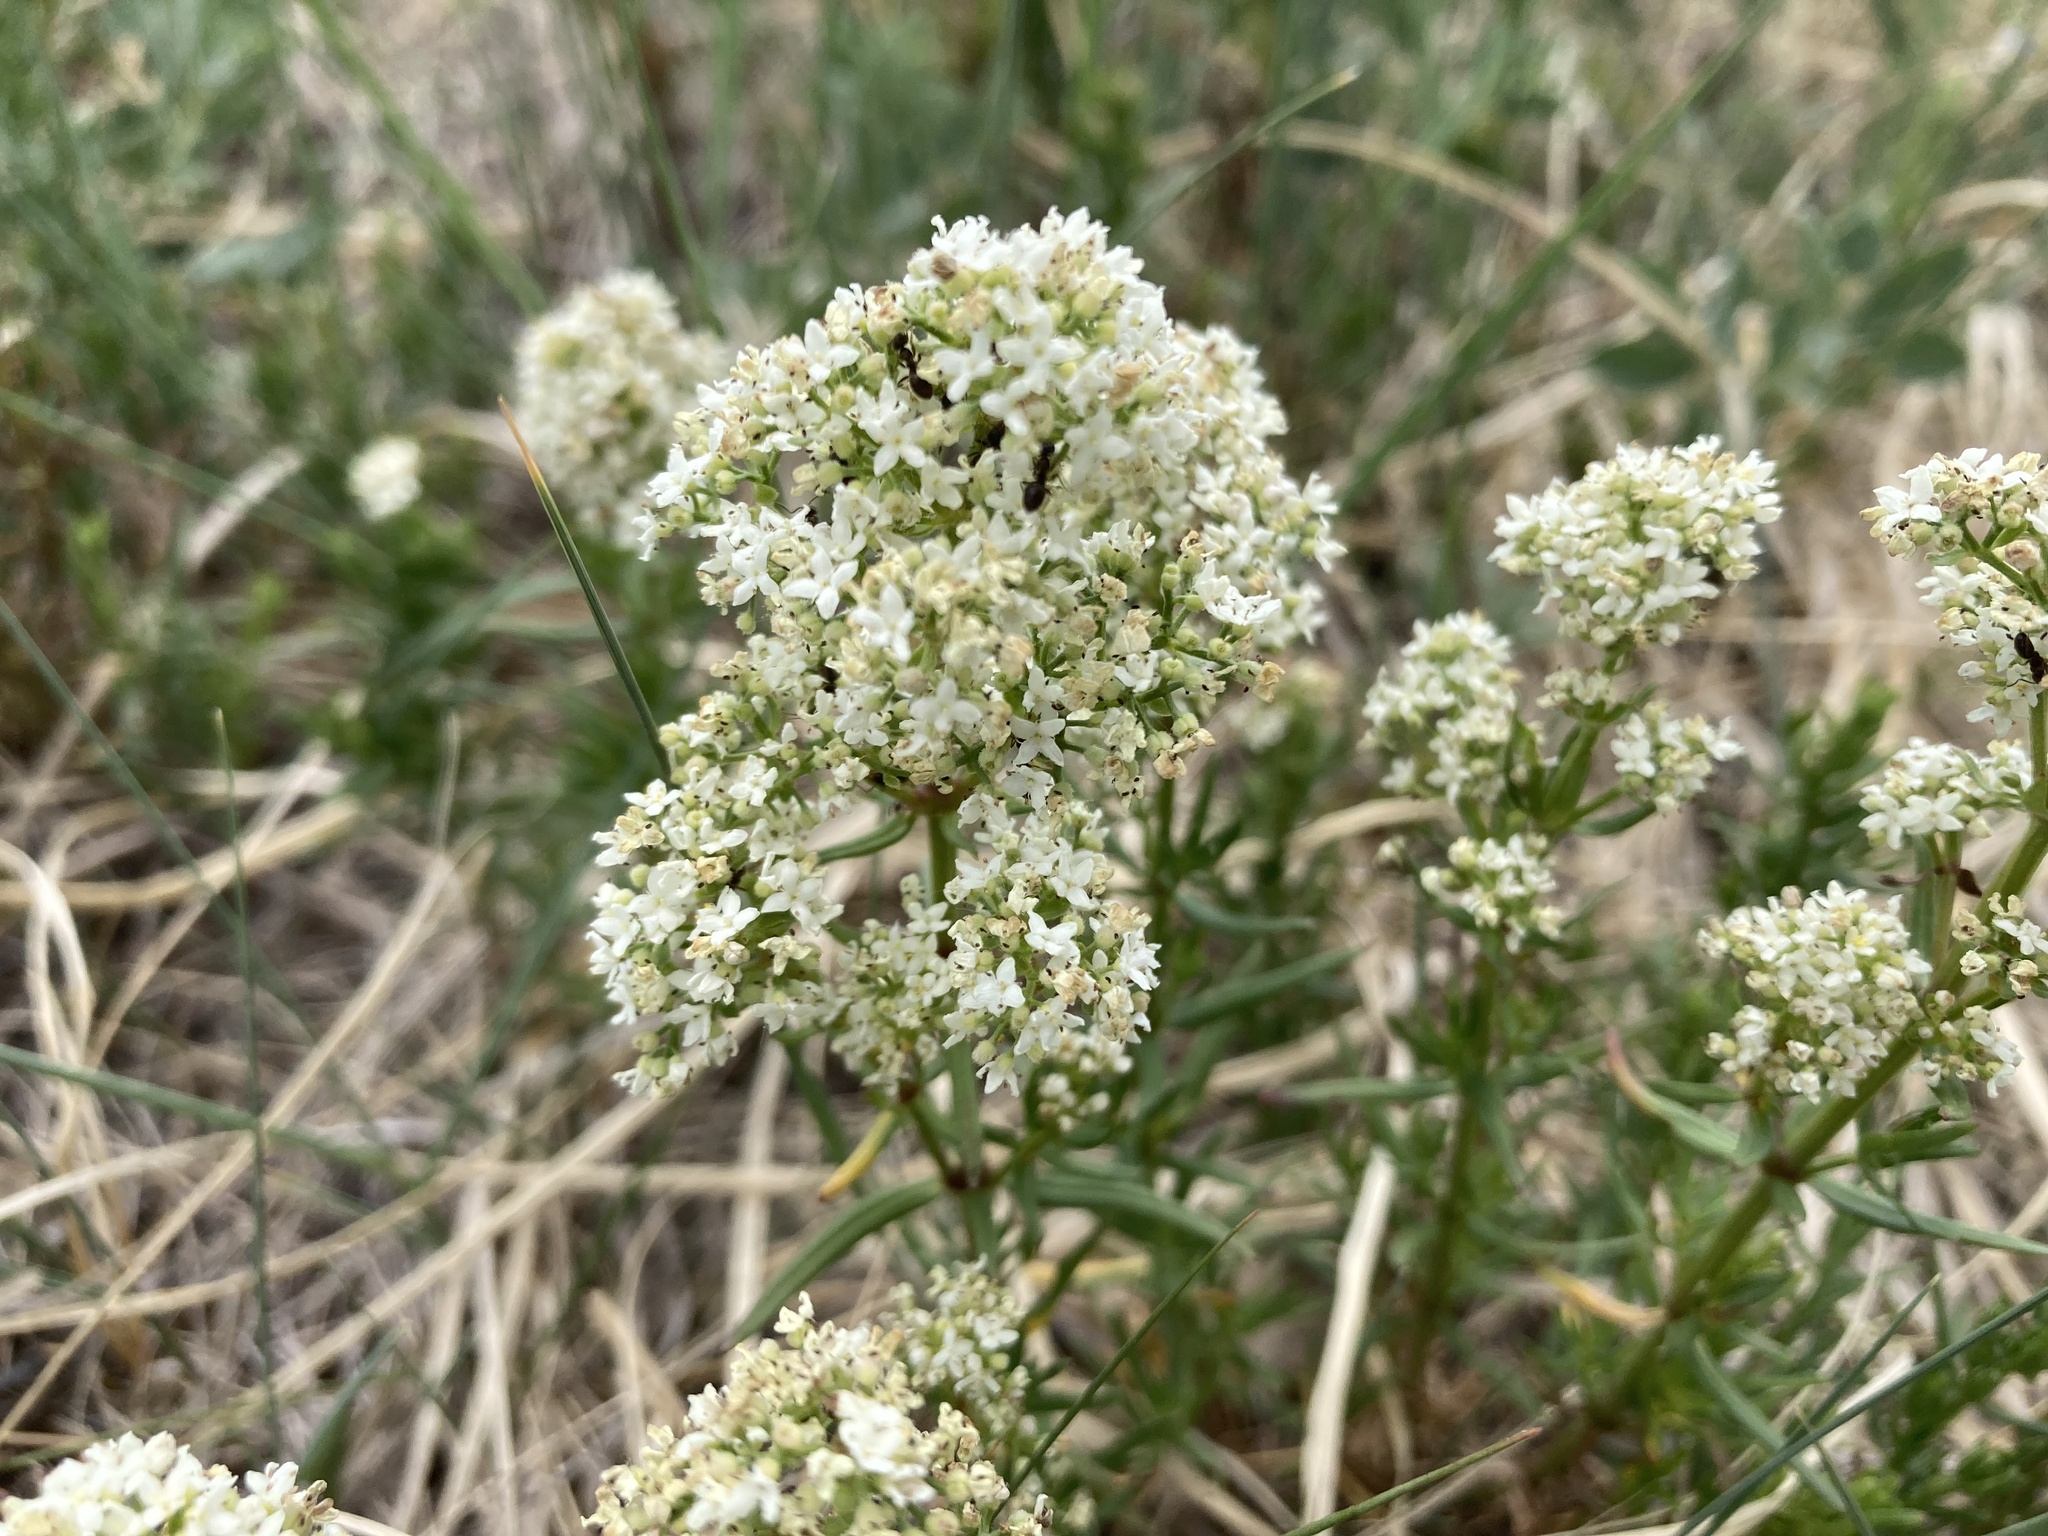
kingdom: Plantae
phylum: Tracheophyta
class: Magnoliopsida
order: Gentianales
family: Rubiaceae
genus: Galium
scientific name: Galium boreale
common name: Northern bedstraw
